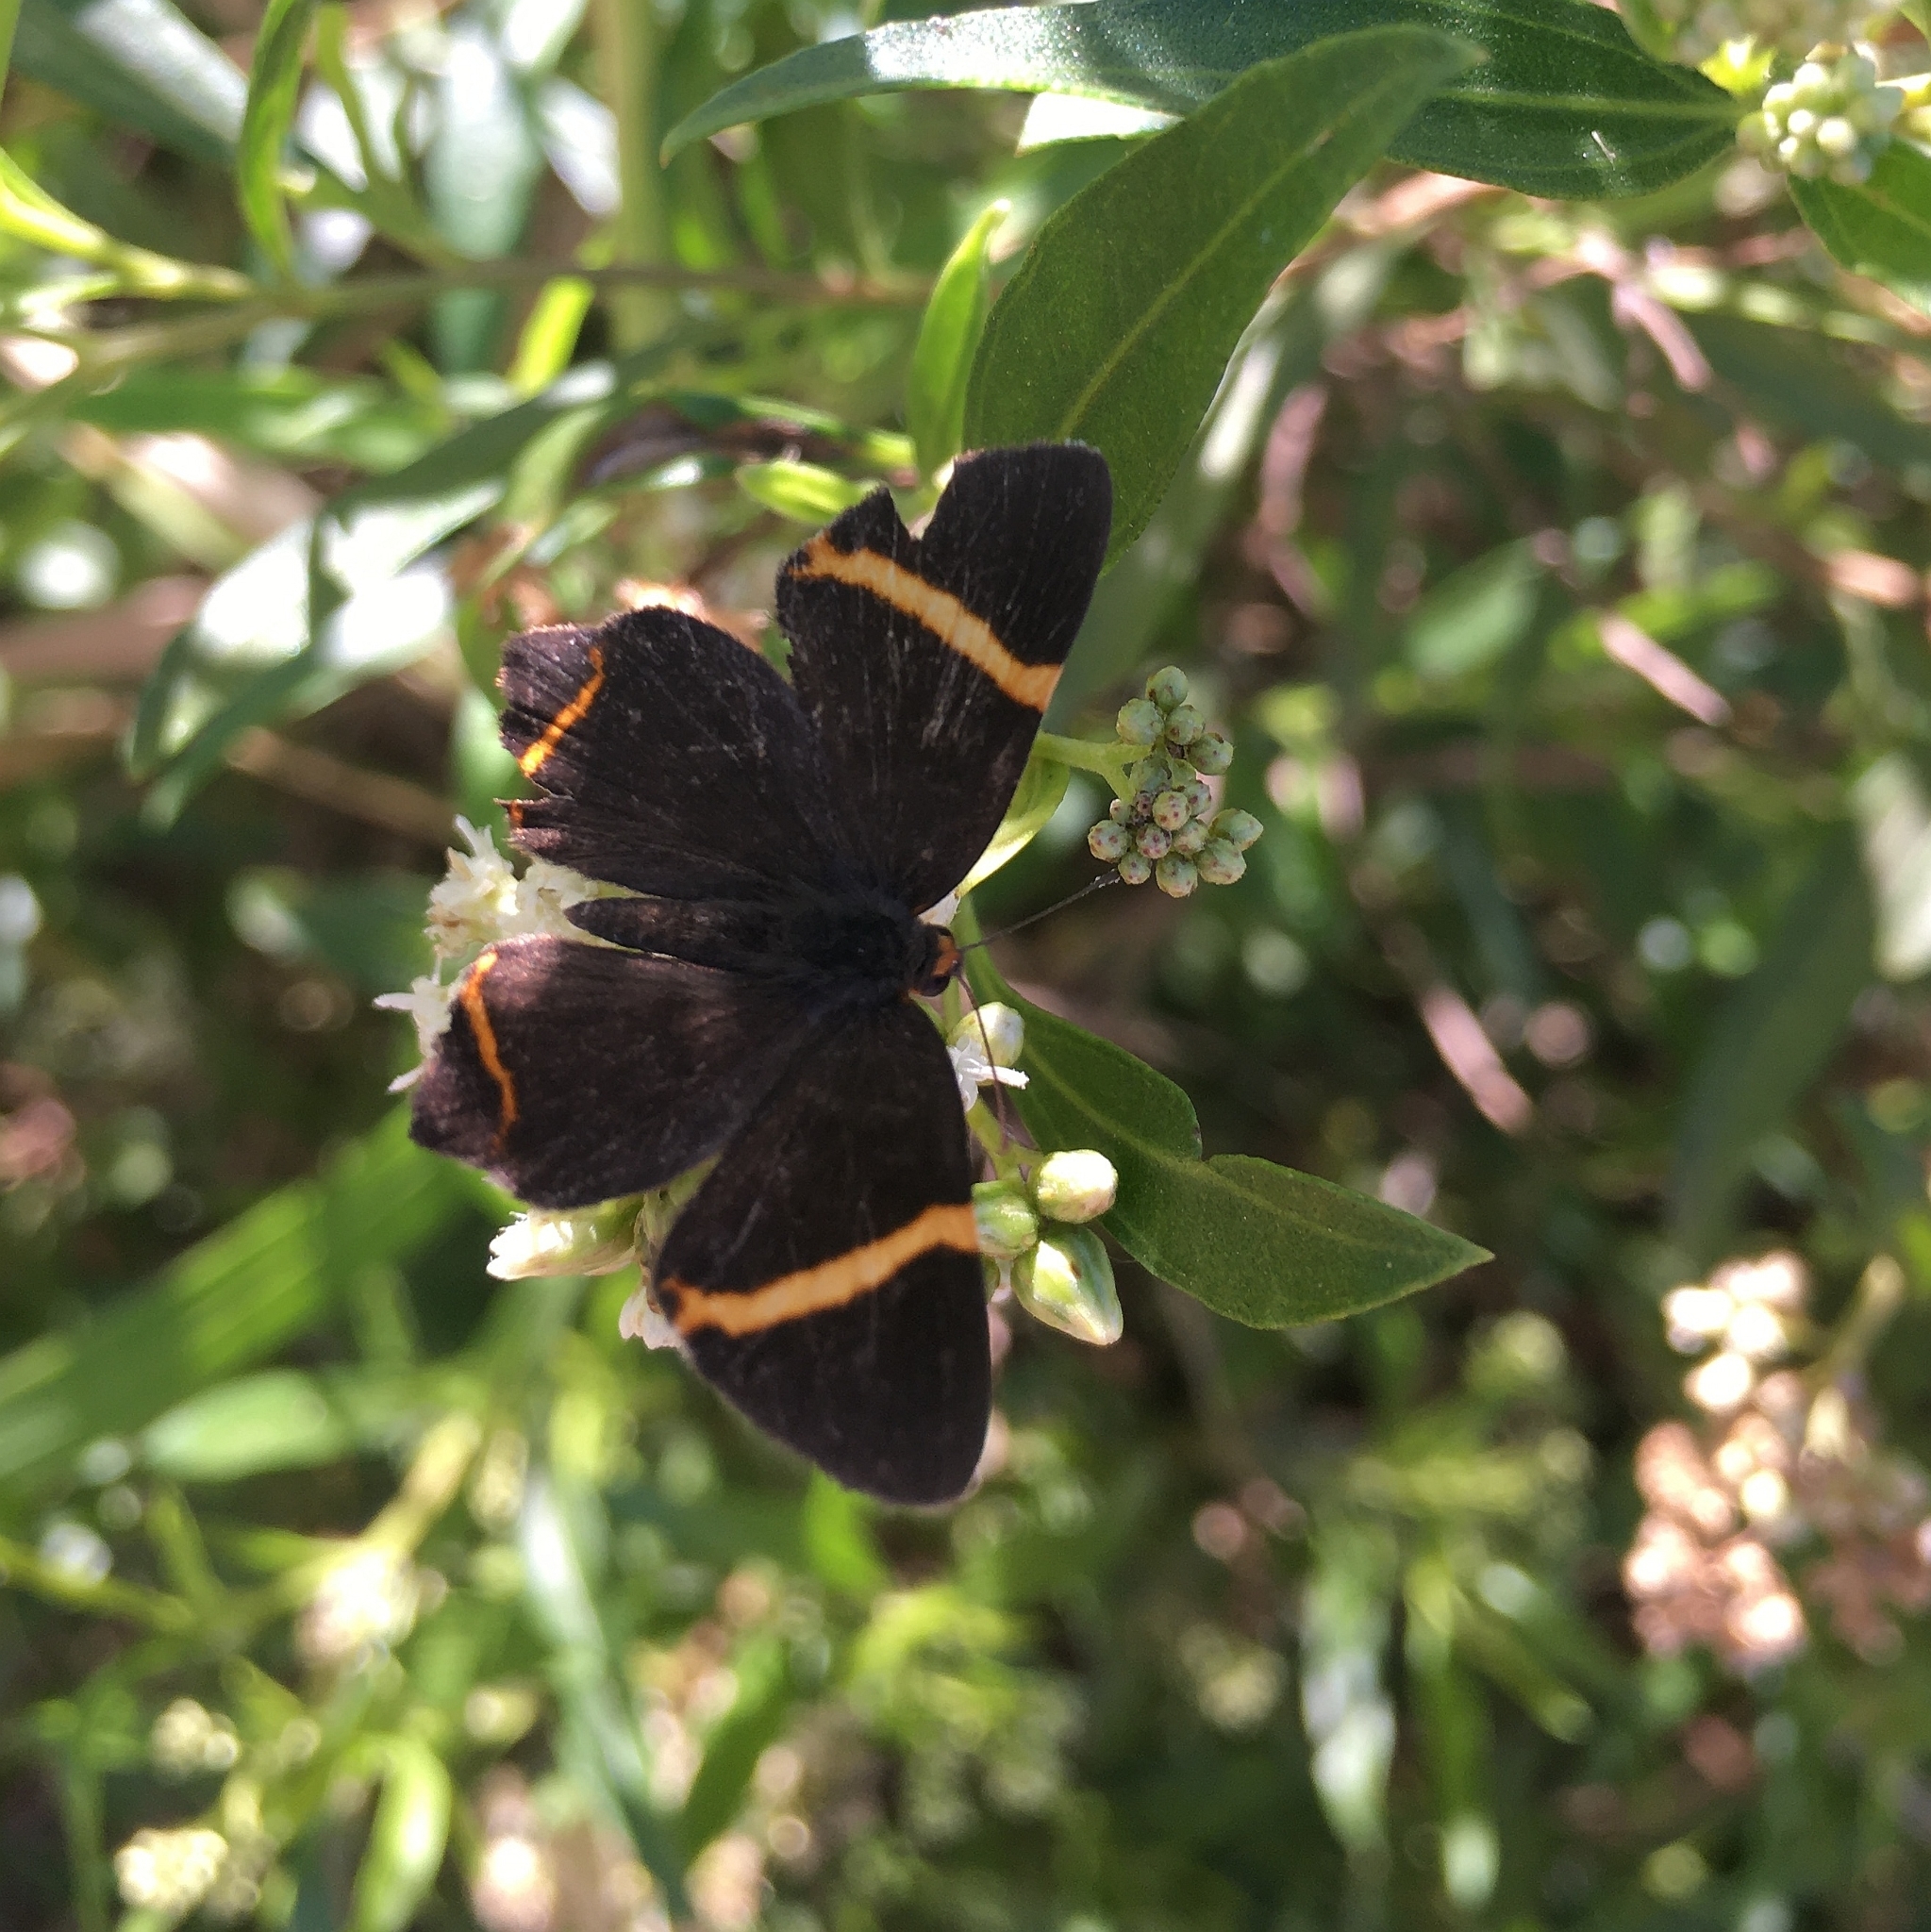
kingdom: Animalia
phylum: Arthropoda
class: Insecta
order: Lepidoptera
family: Riodinidae
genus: Riodina
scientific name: Riodina lysippoides
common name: Little dancer metalmark
